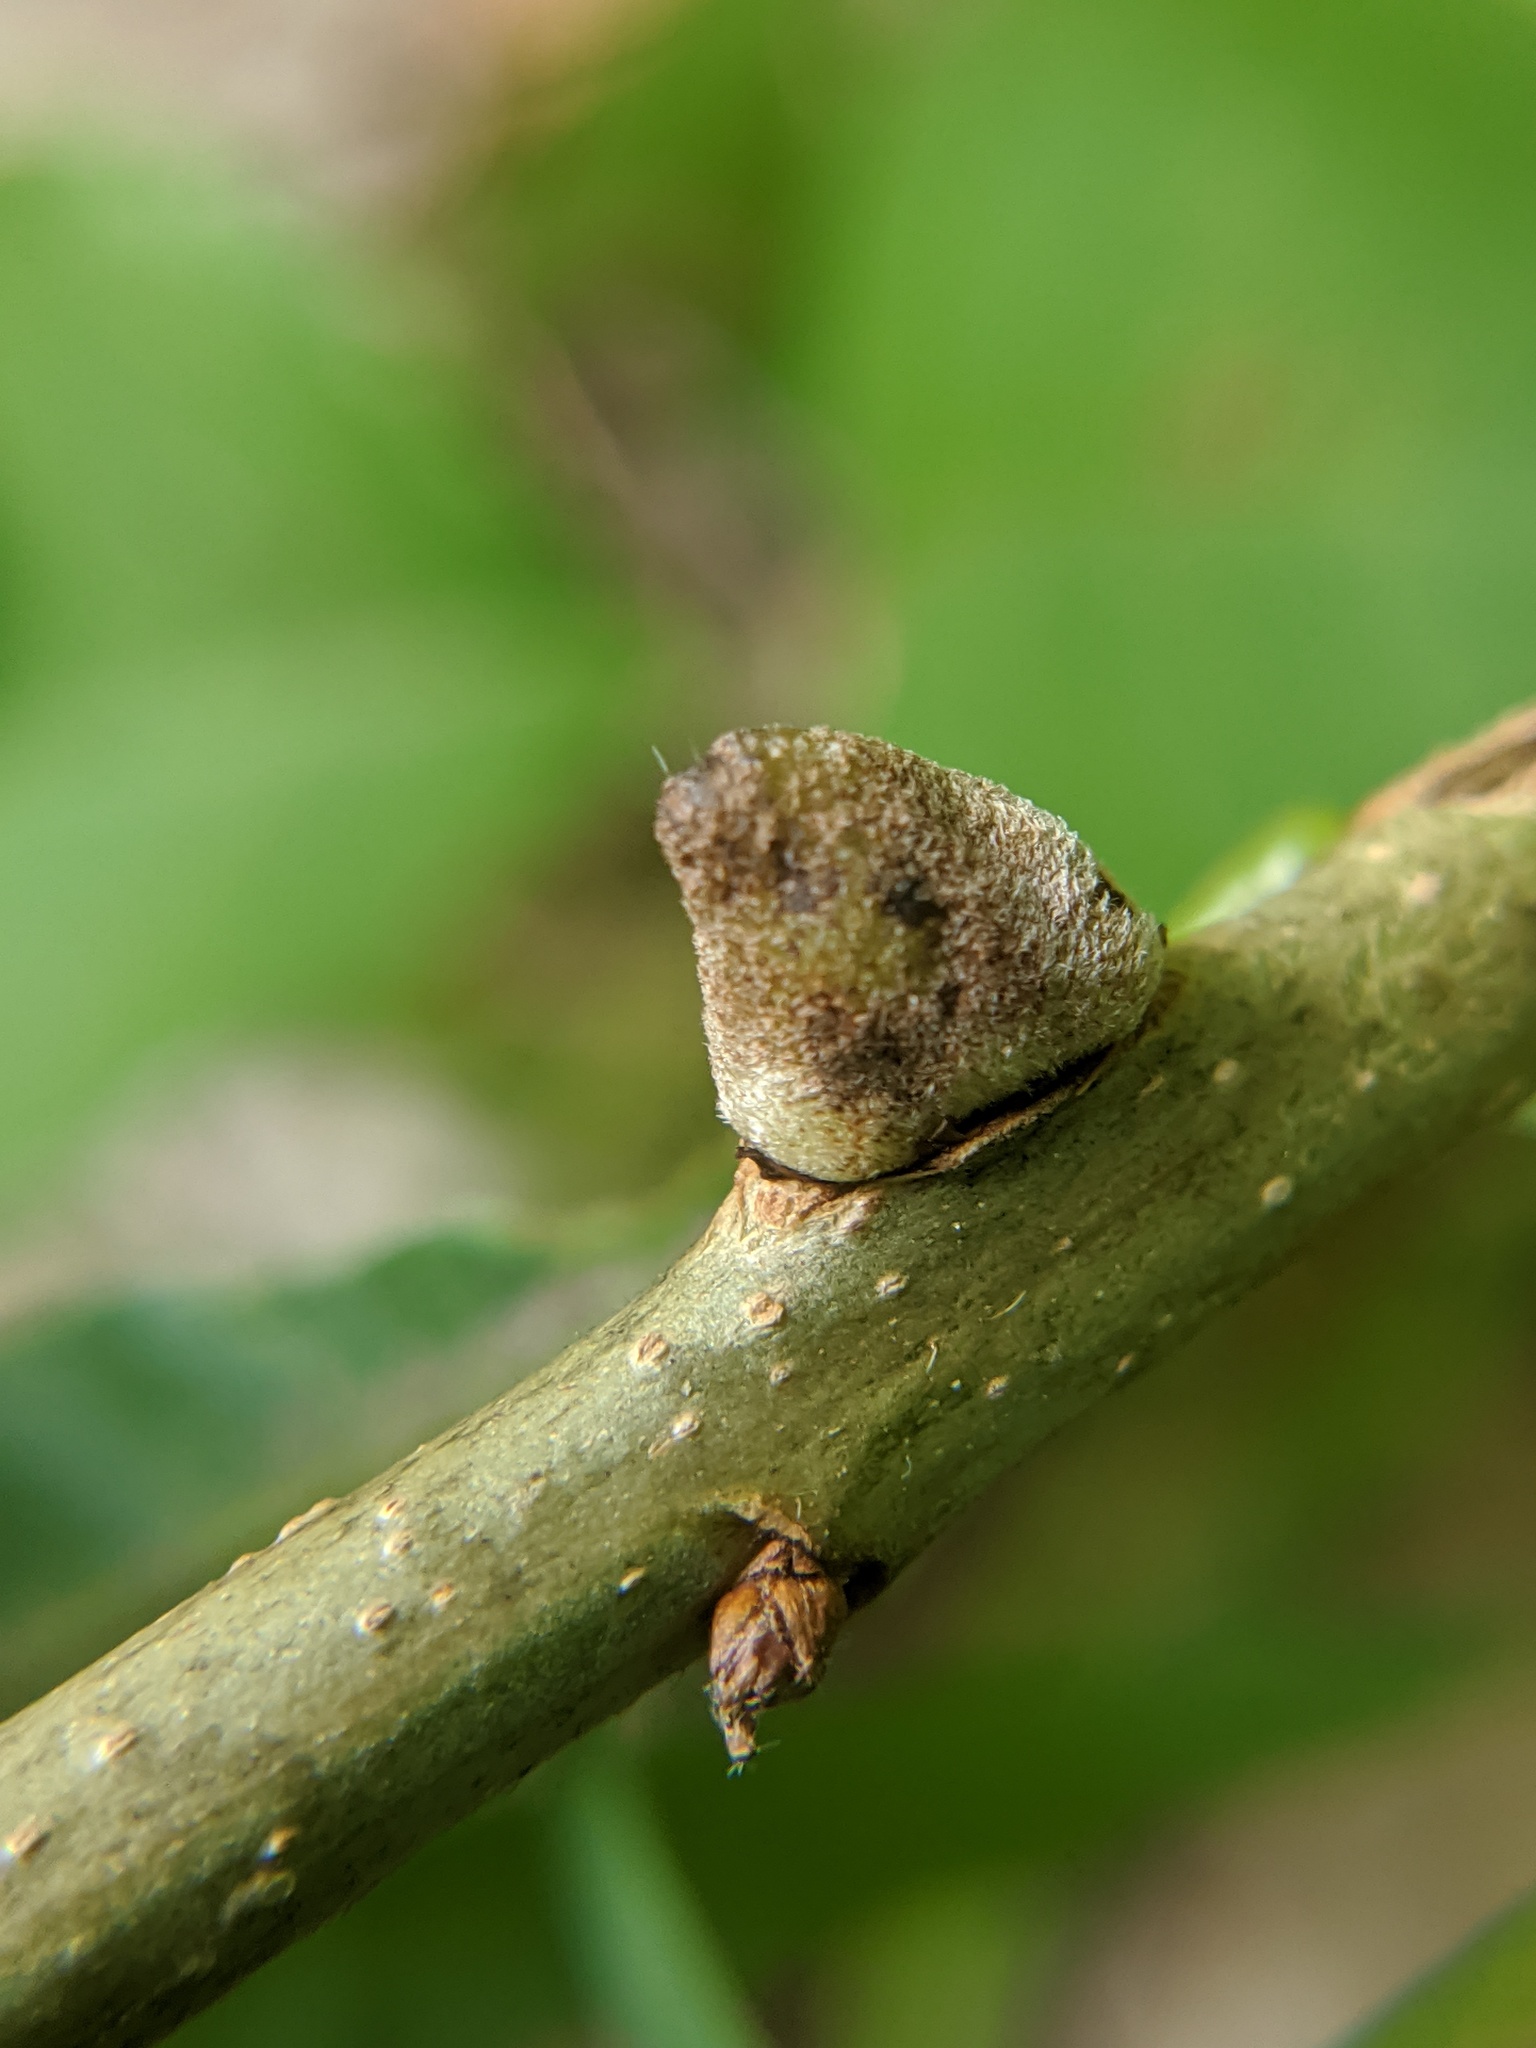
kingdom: Animalia
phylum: Arthropoda
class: Insecta
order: Hymenoptera
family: Cynipidae
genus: Disholcaspis
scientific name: Disholcaspis
